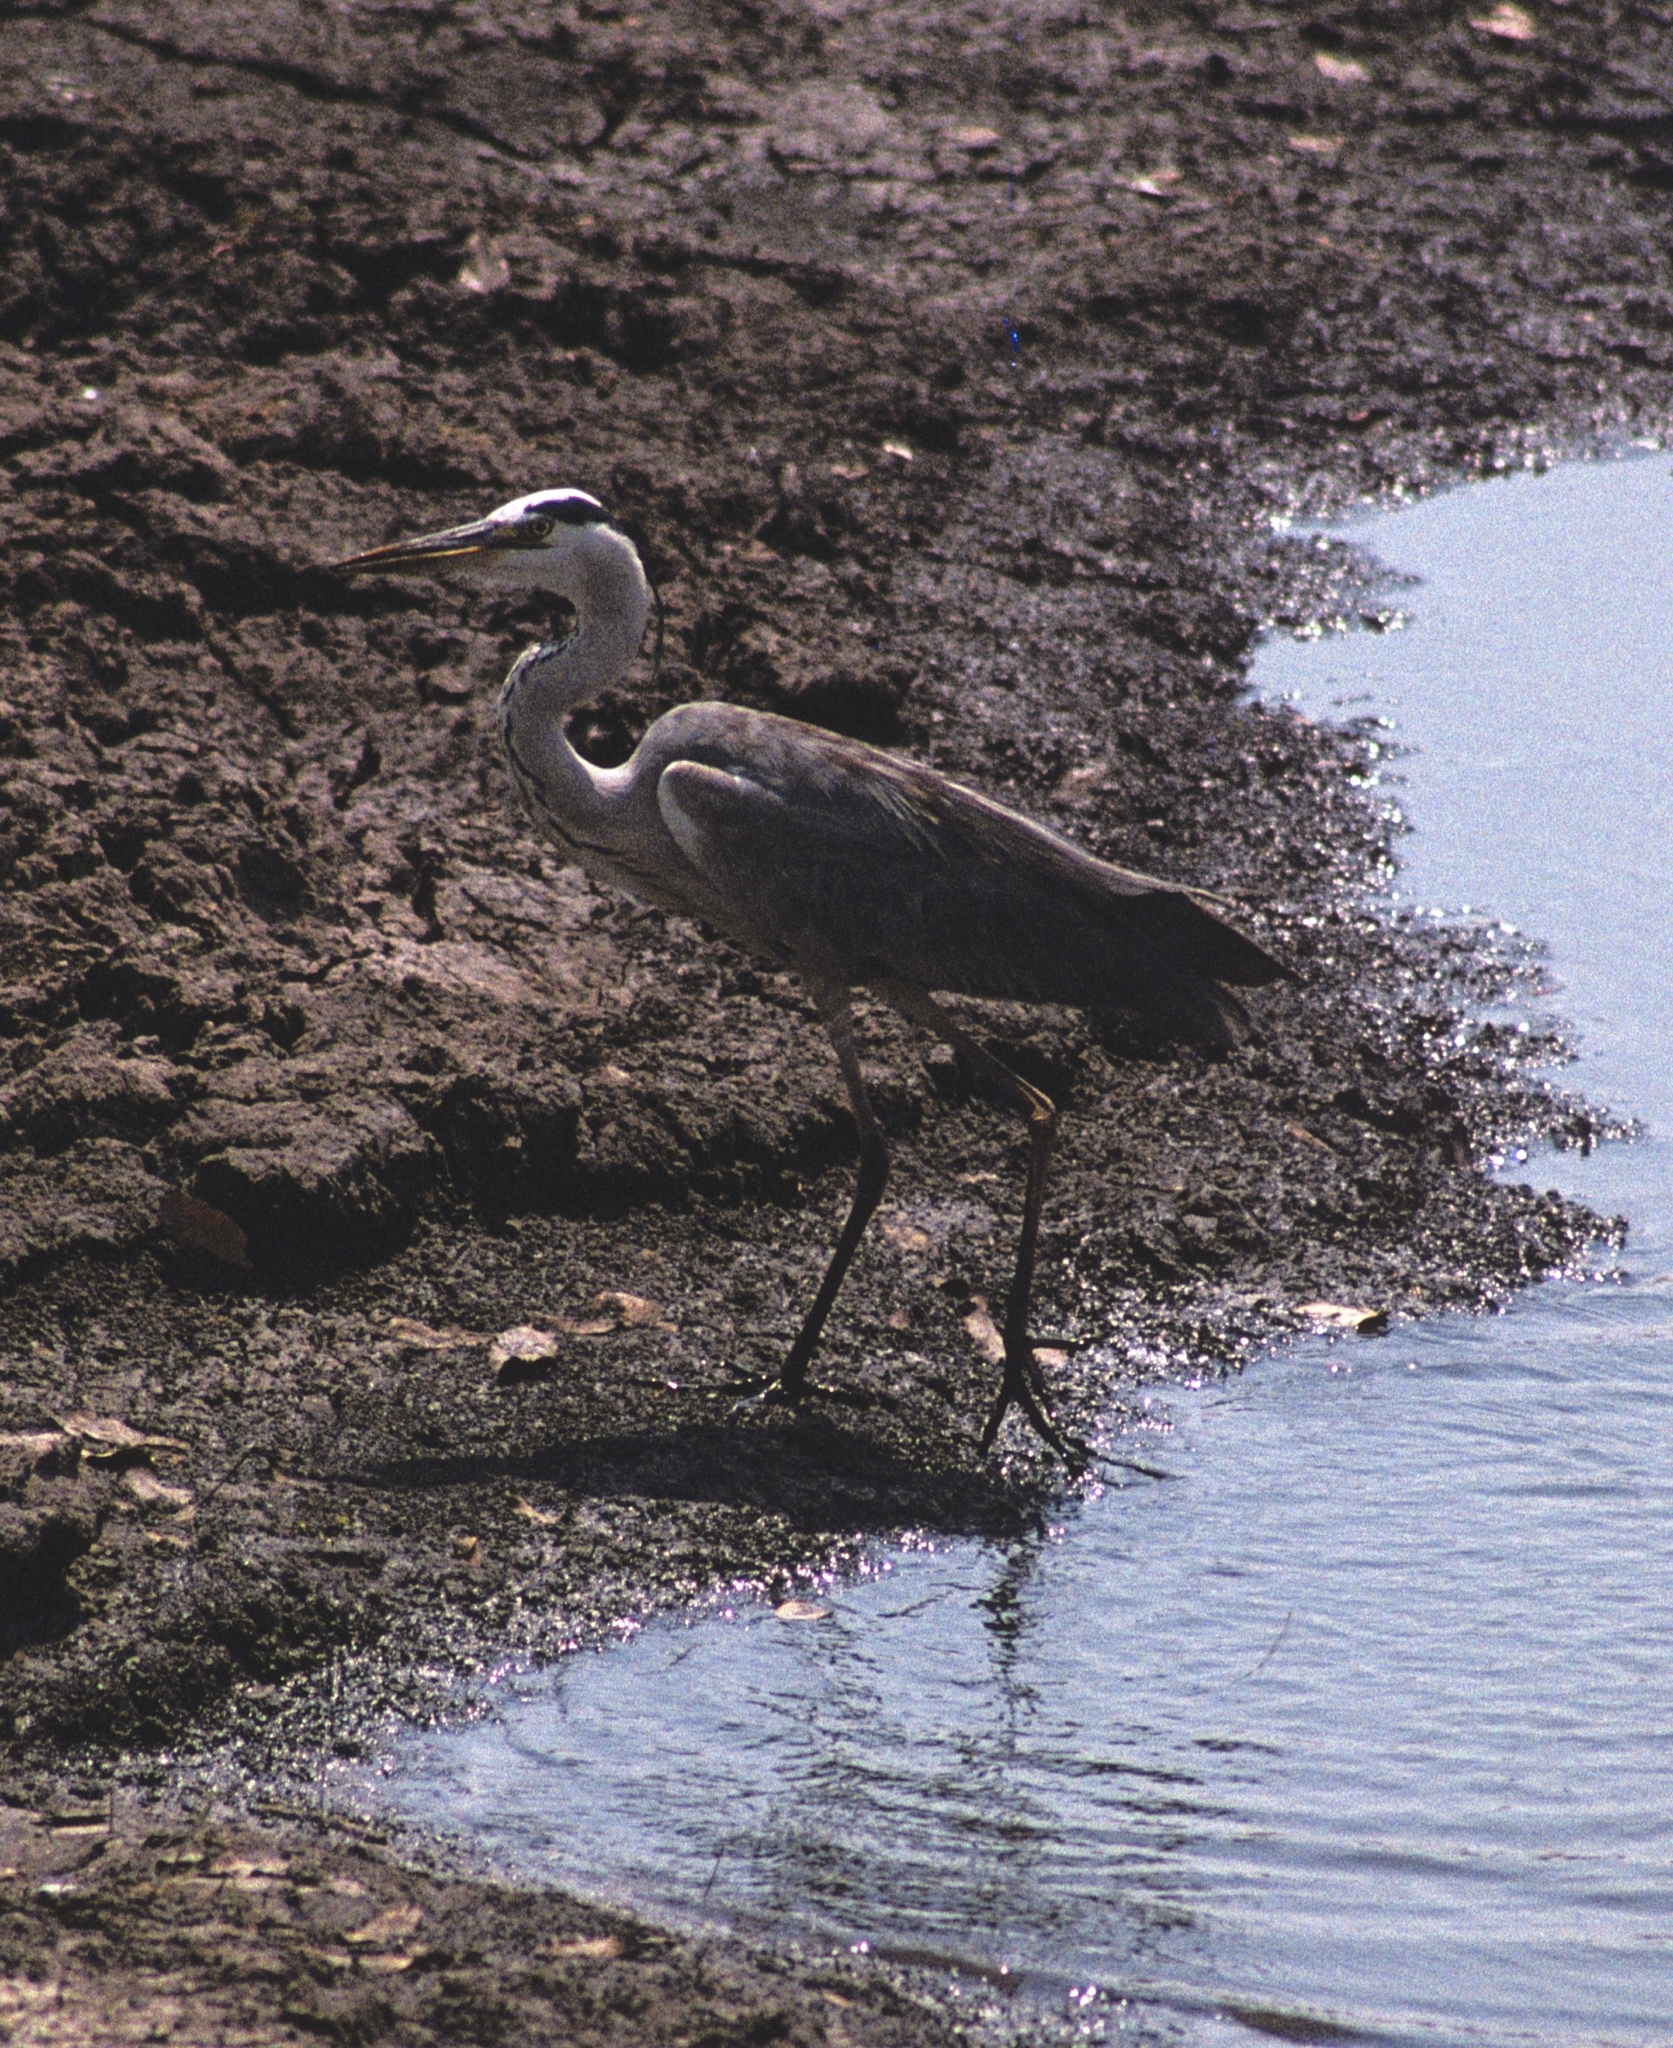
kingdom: Animalia
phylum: Chordata
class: Aves
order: Pelecaniformes
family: Ardeidae
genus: Ardea
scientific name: Ardea cinerea
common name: Grey heron
